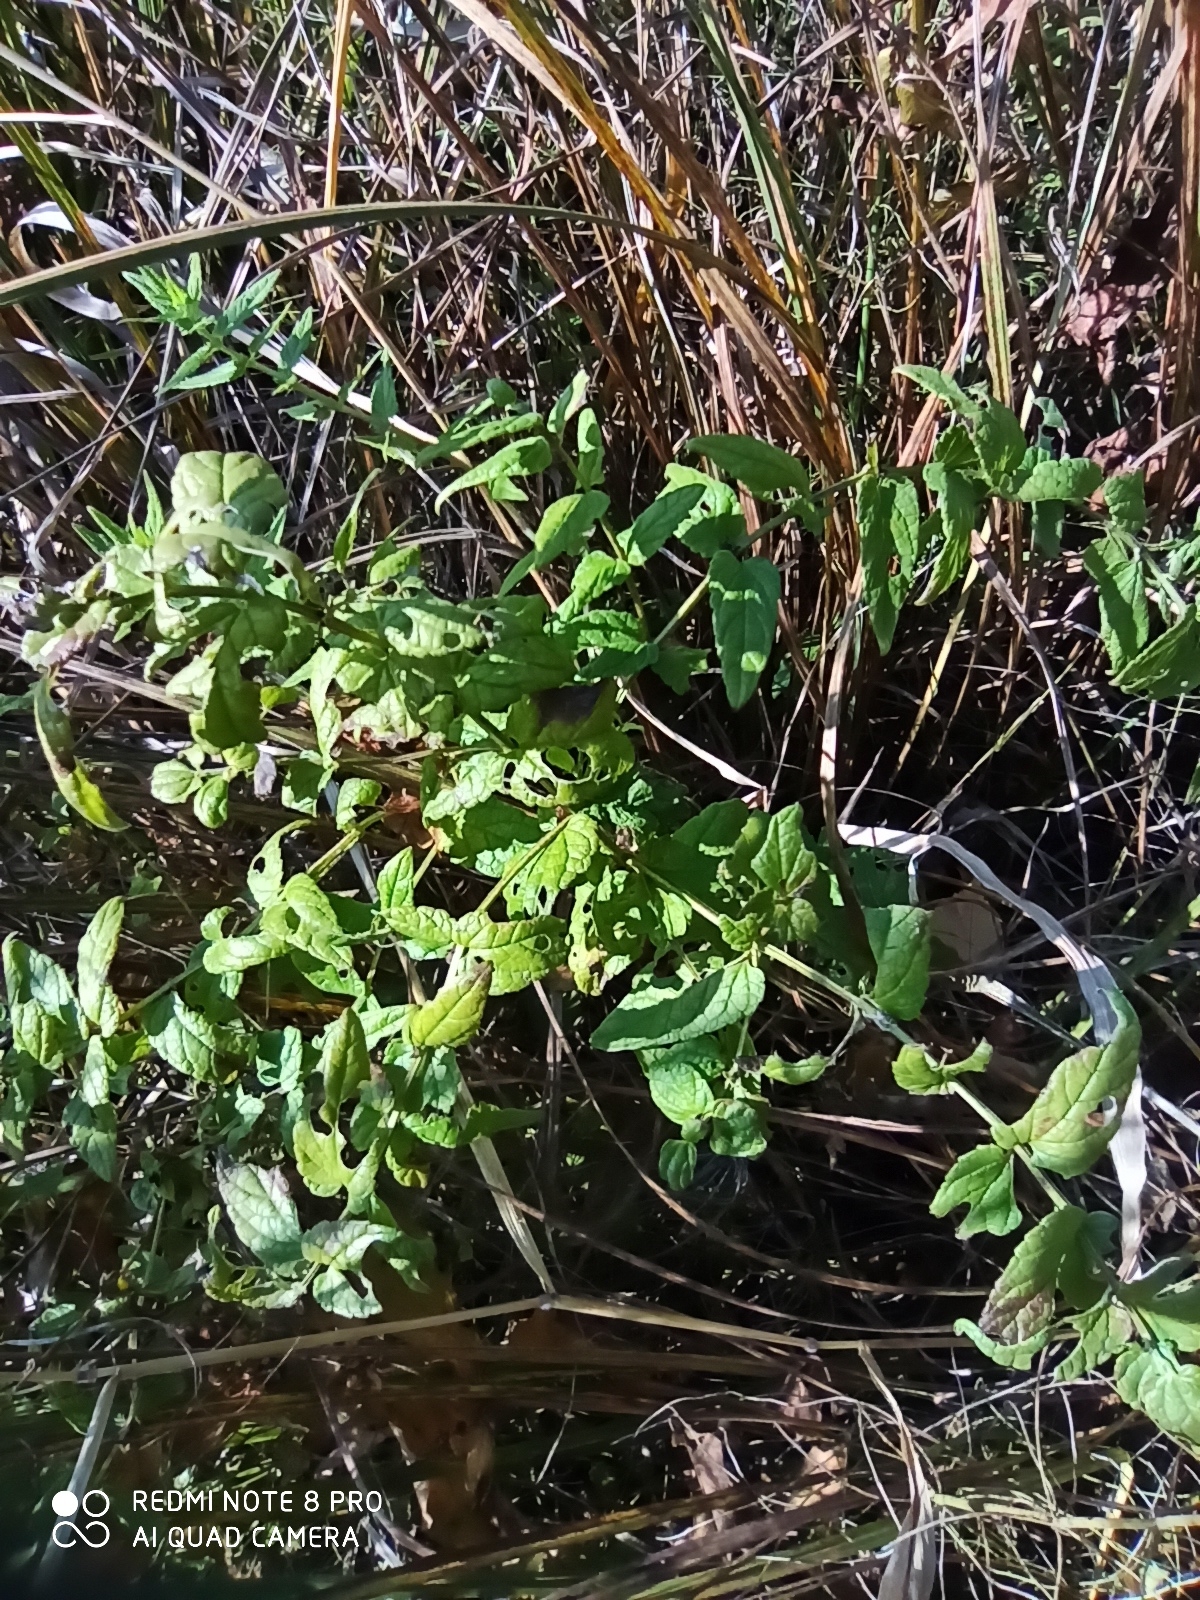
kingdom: Plantae
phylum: Tracheophyta
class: Magnoliopsida
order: Lamiales
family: Lamiaceae
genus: Scutellaria
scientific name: Scutellaria galericulata
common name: Skullcap
